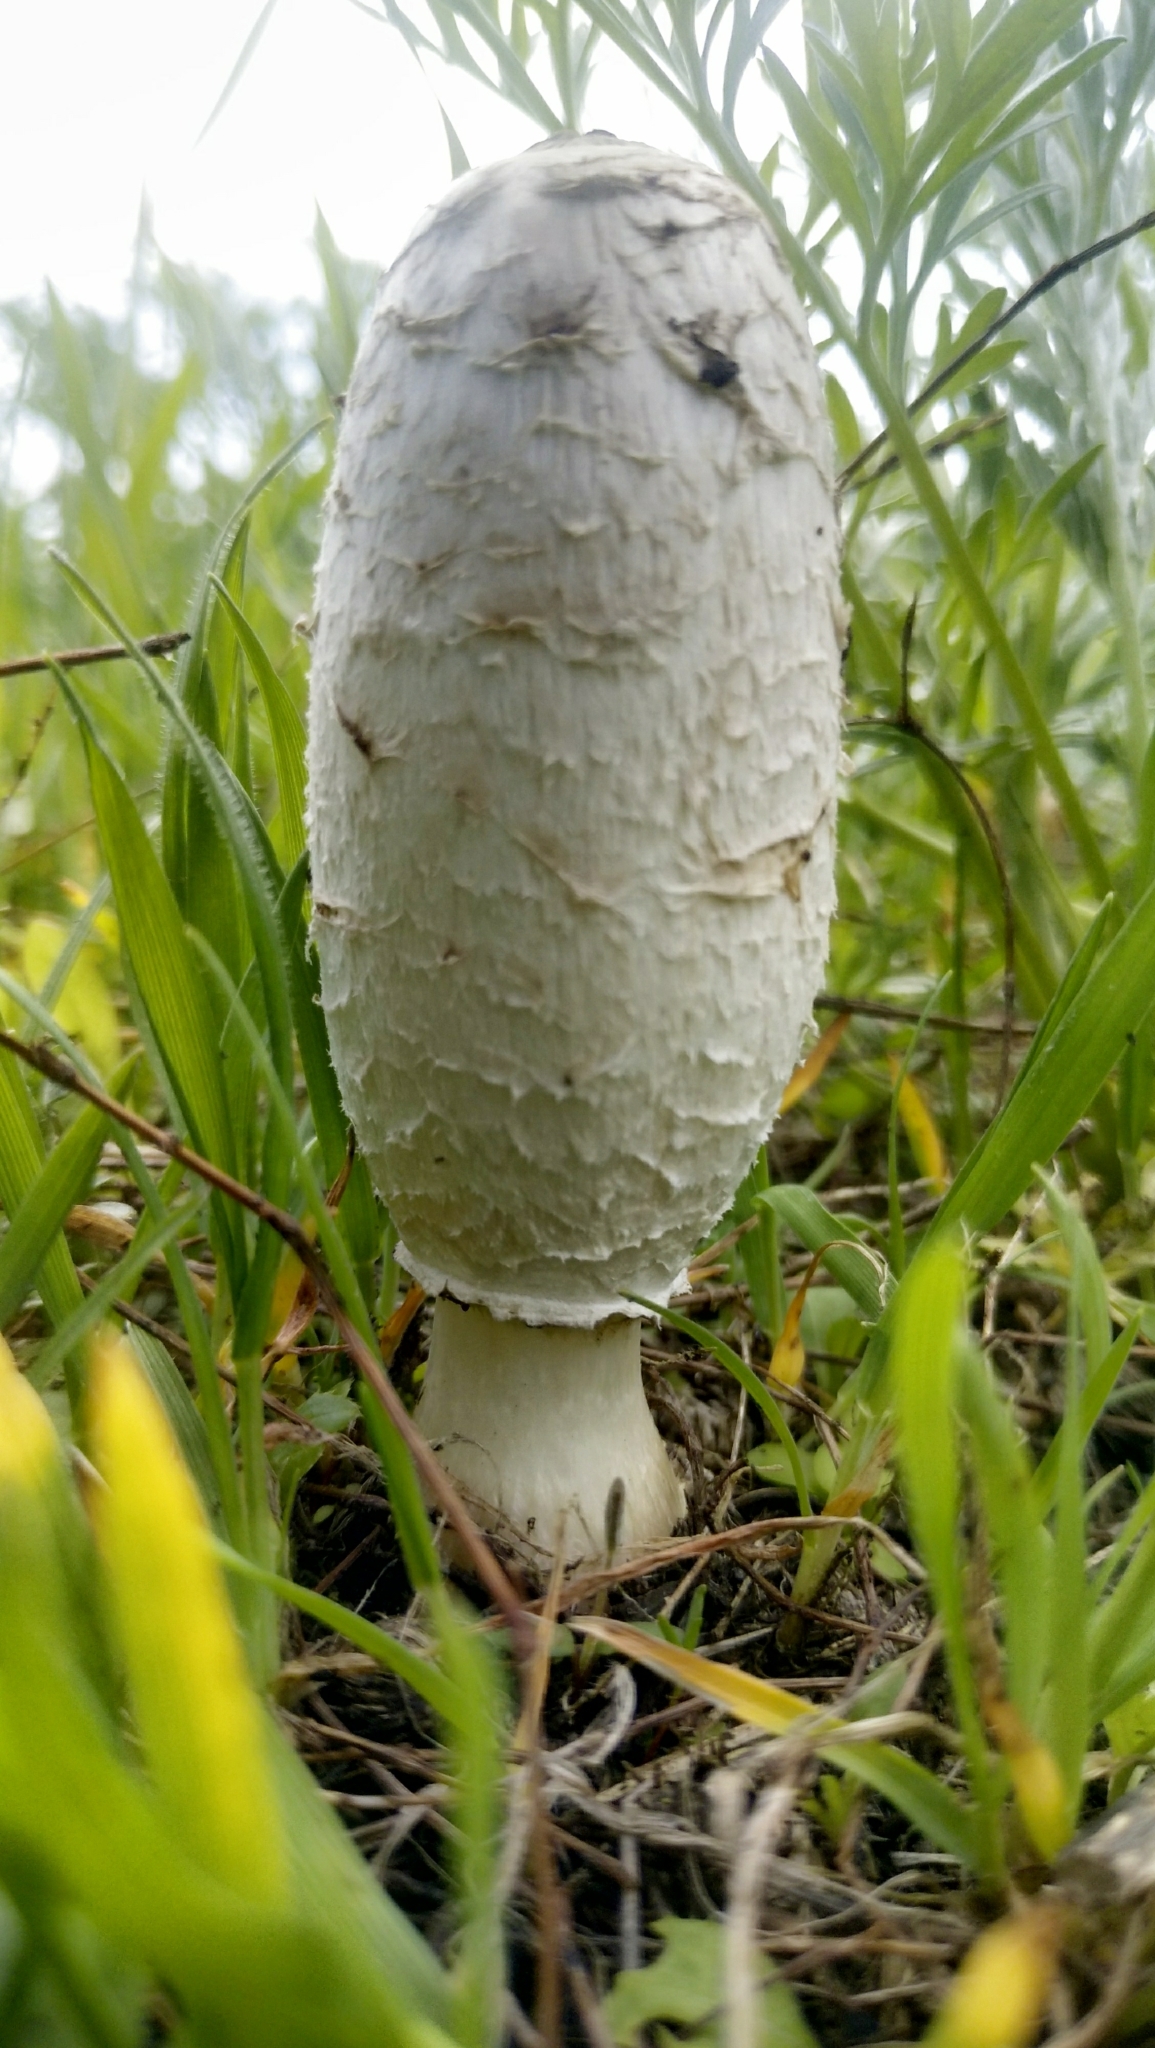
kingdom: Fungi
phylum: Basidiomycota
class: Agaricomycetes
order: Agaricales
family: Agaricaceae
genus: Coprinus
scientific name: Coprinus comatus
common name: Lawyer's wig
